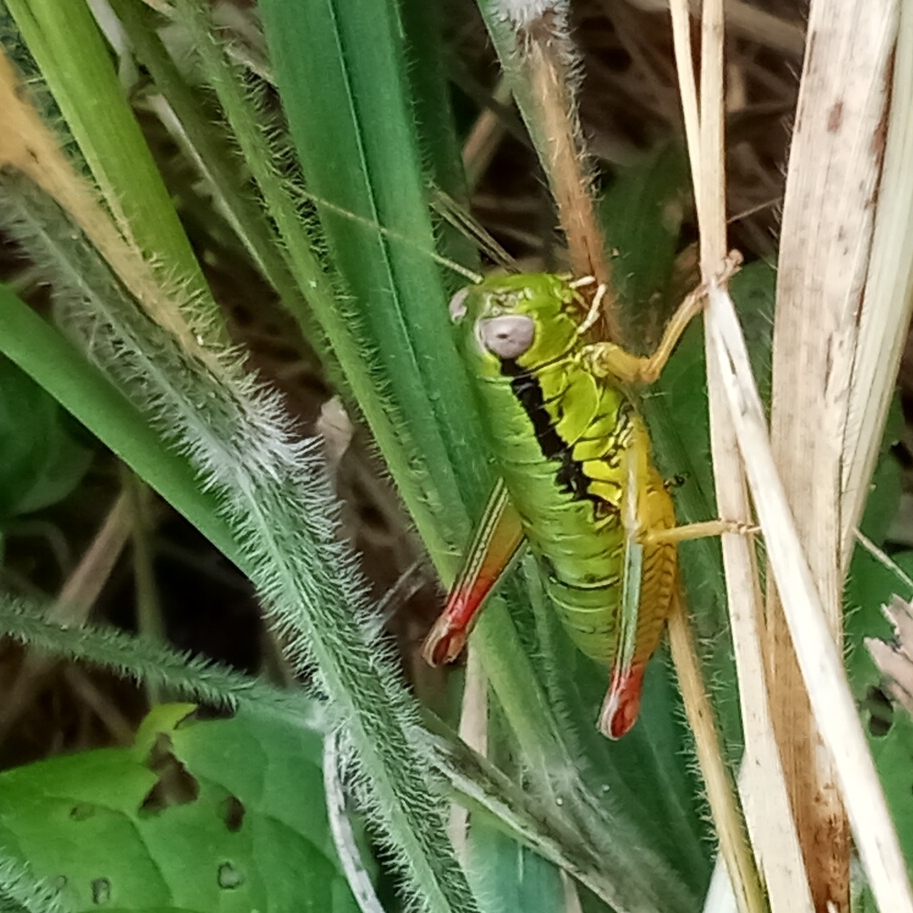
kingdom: Animalia
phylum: Arthropoda
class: Insecta
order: Orthoptera
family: Acrididae
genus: Micropodisma
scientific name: Micropodisma salamandra
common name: Foothill mountain grasshopper
